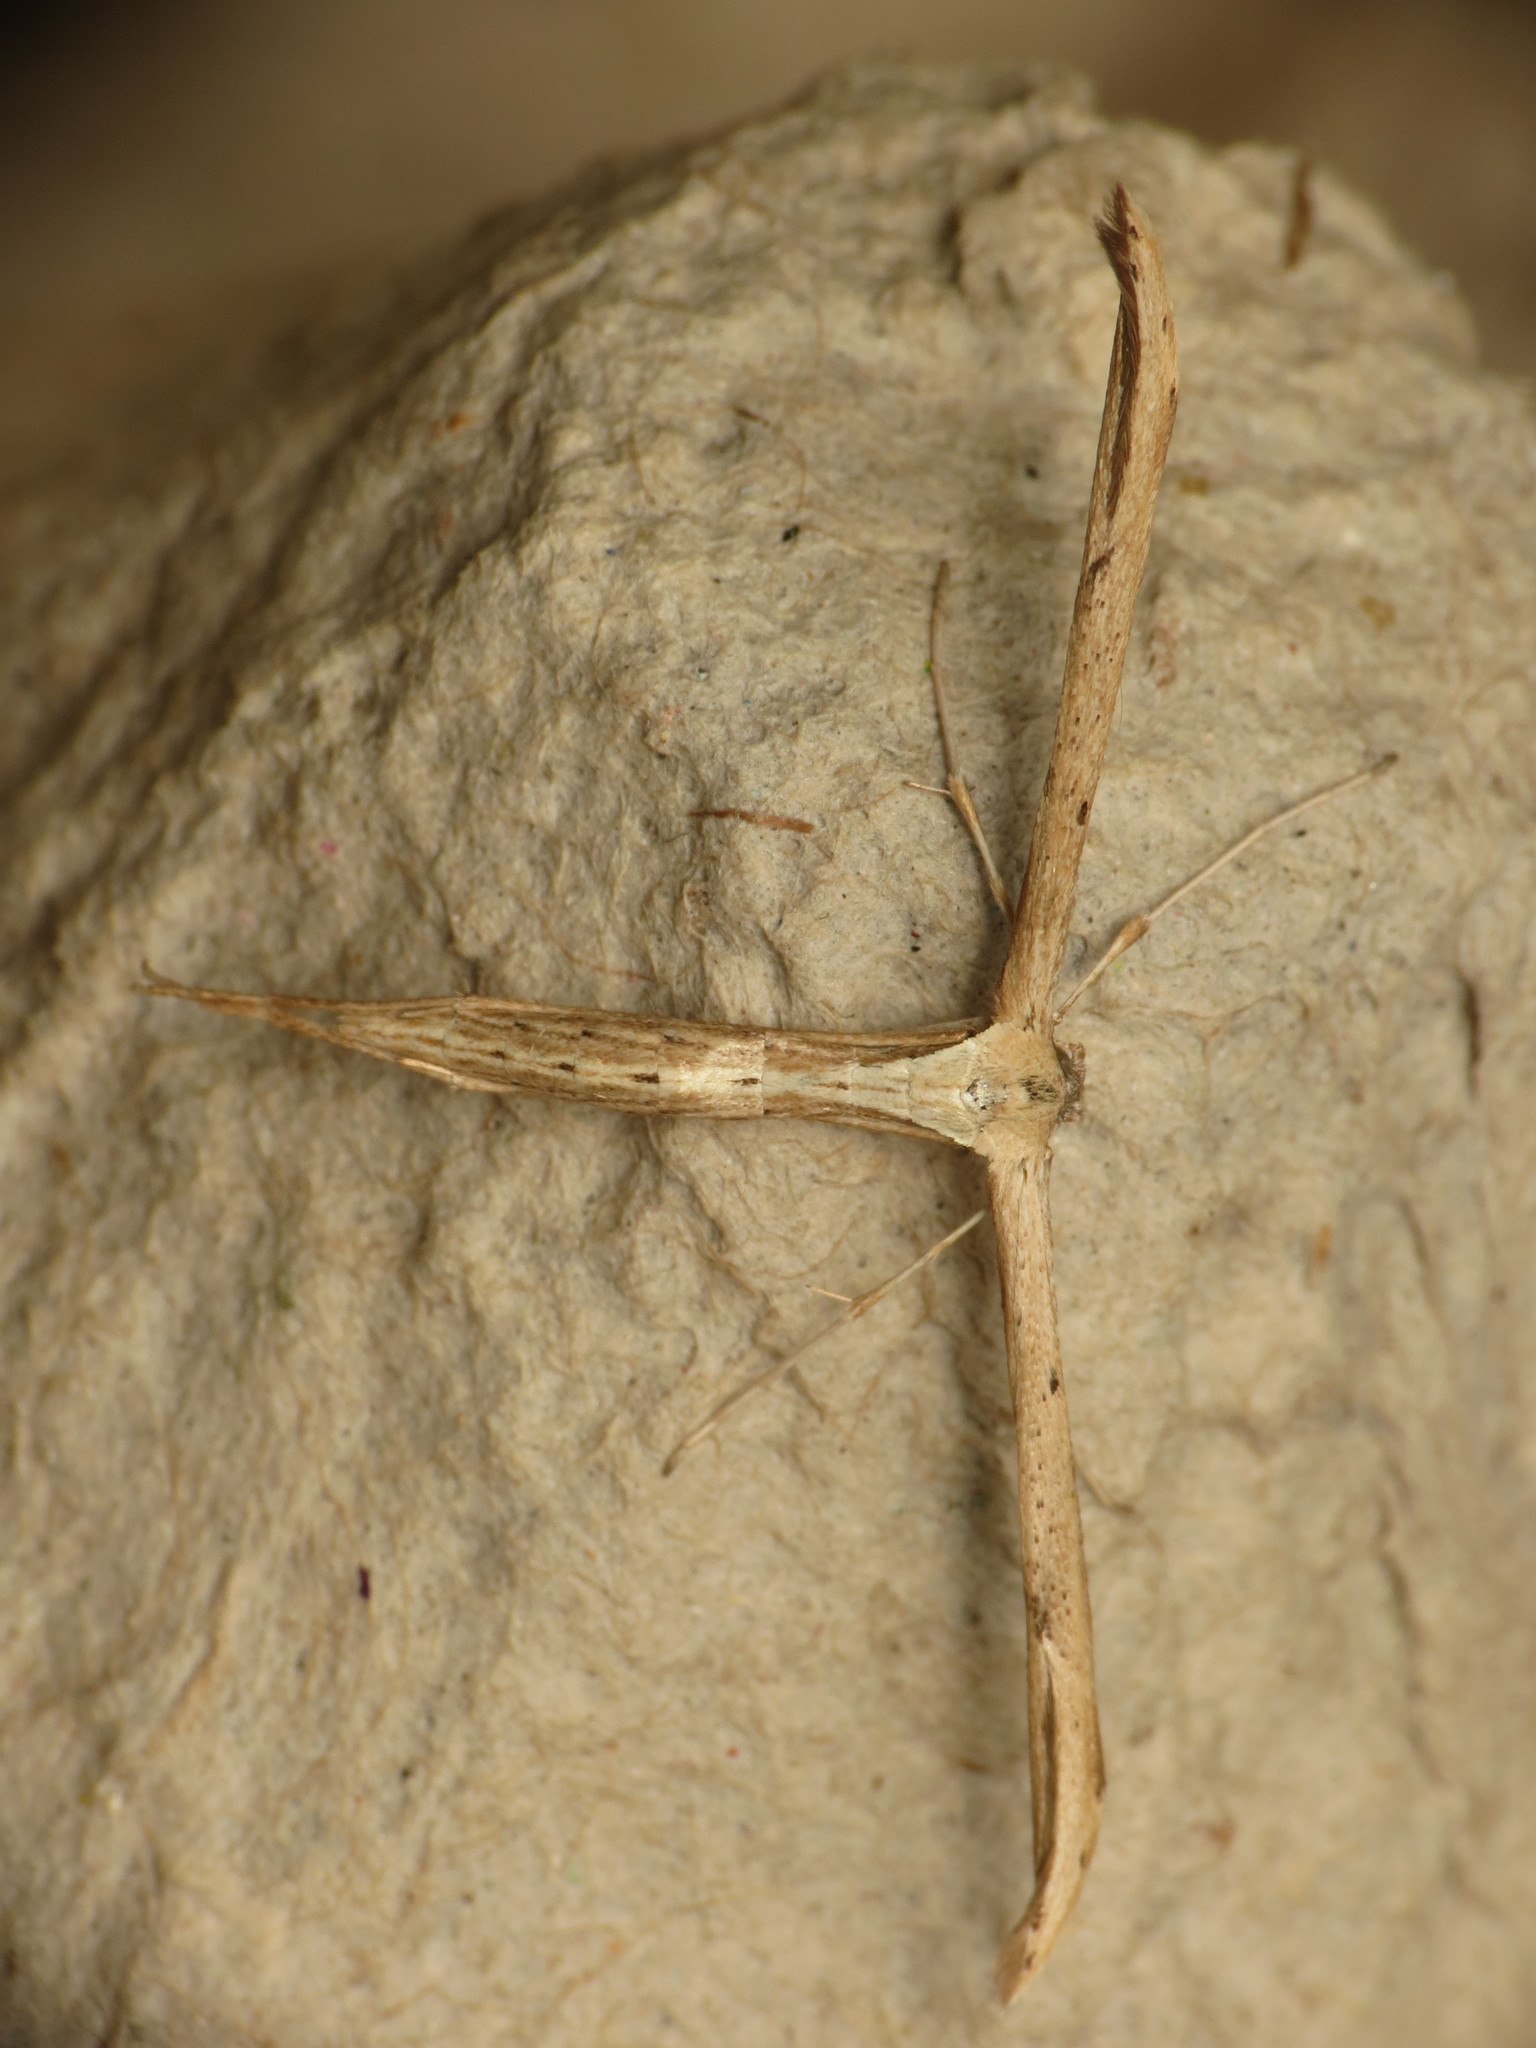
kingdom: Animalia
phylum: Arthropoda
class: Insecta
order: Lepidoptera
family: Pterophoridae
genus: Emmelina
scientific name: Emmelina monodactyla
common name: Common plume
